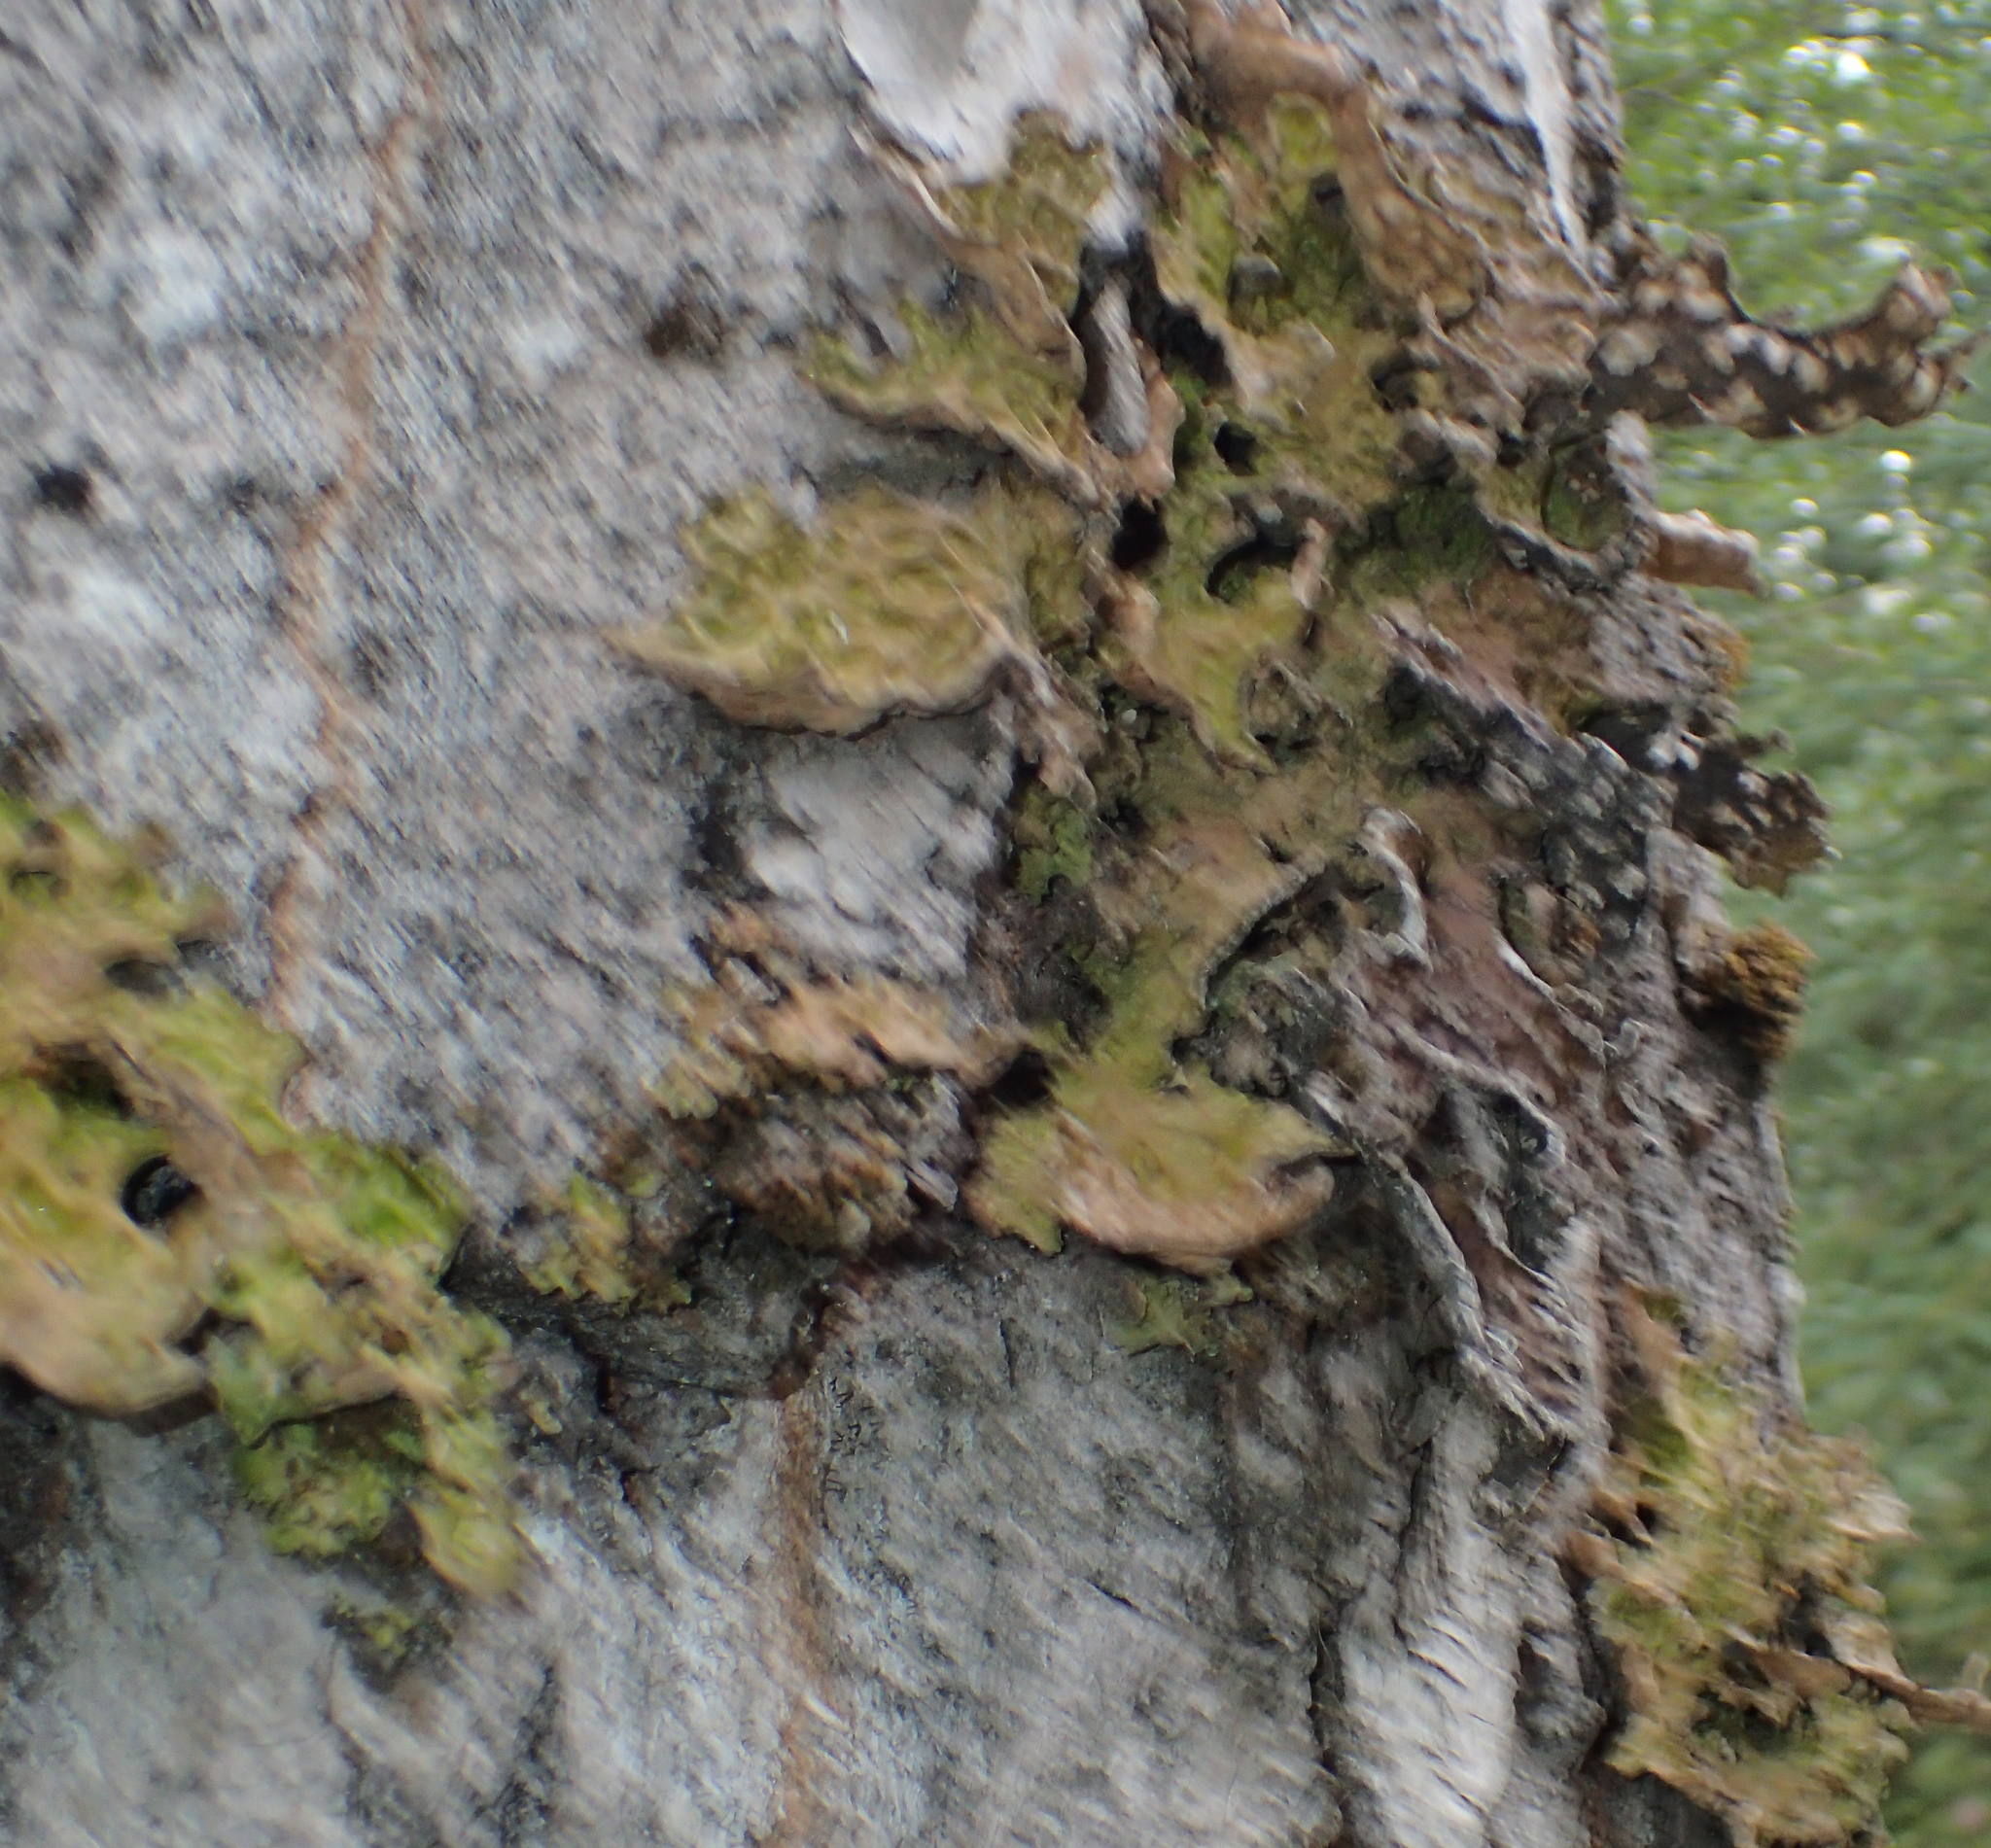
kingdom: Fungi
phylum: Ascomycota
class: Lecanoromycetes
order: Peltigerales
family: Lobariaceae
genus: Lobaria
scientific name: Lobaria pulmonaria
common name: Lungwort
